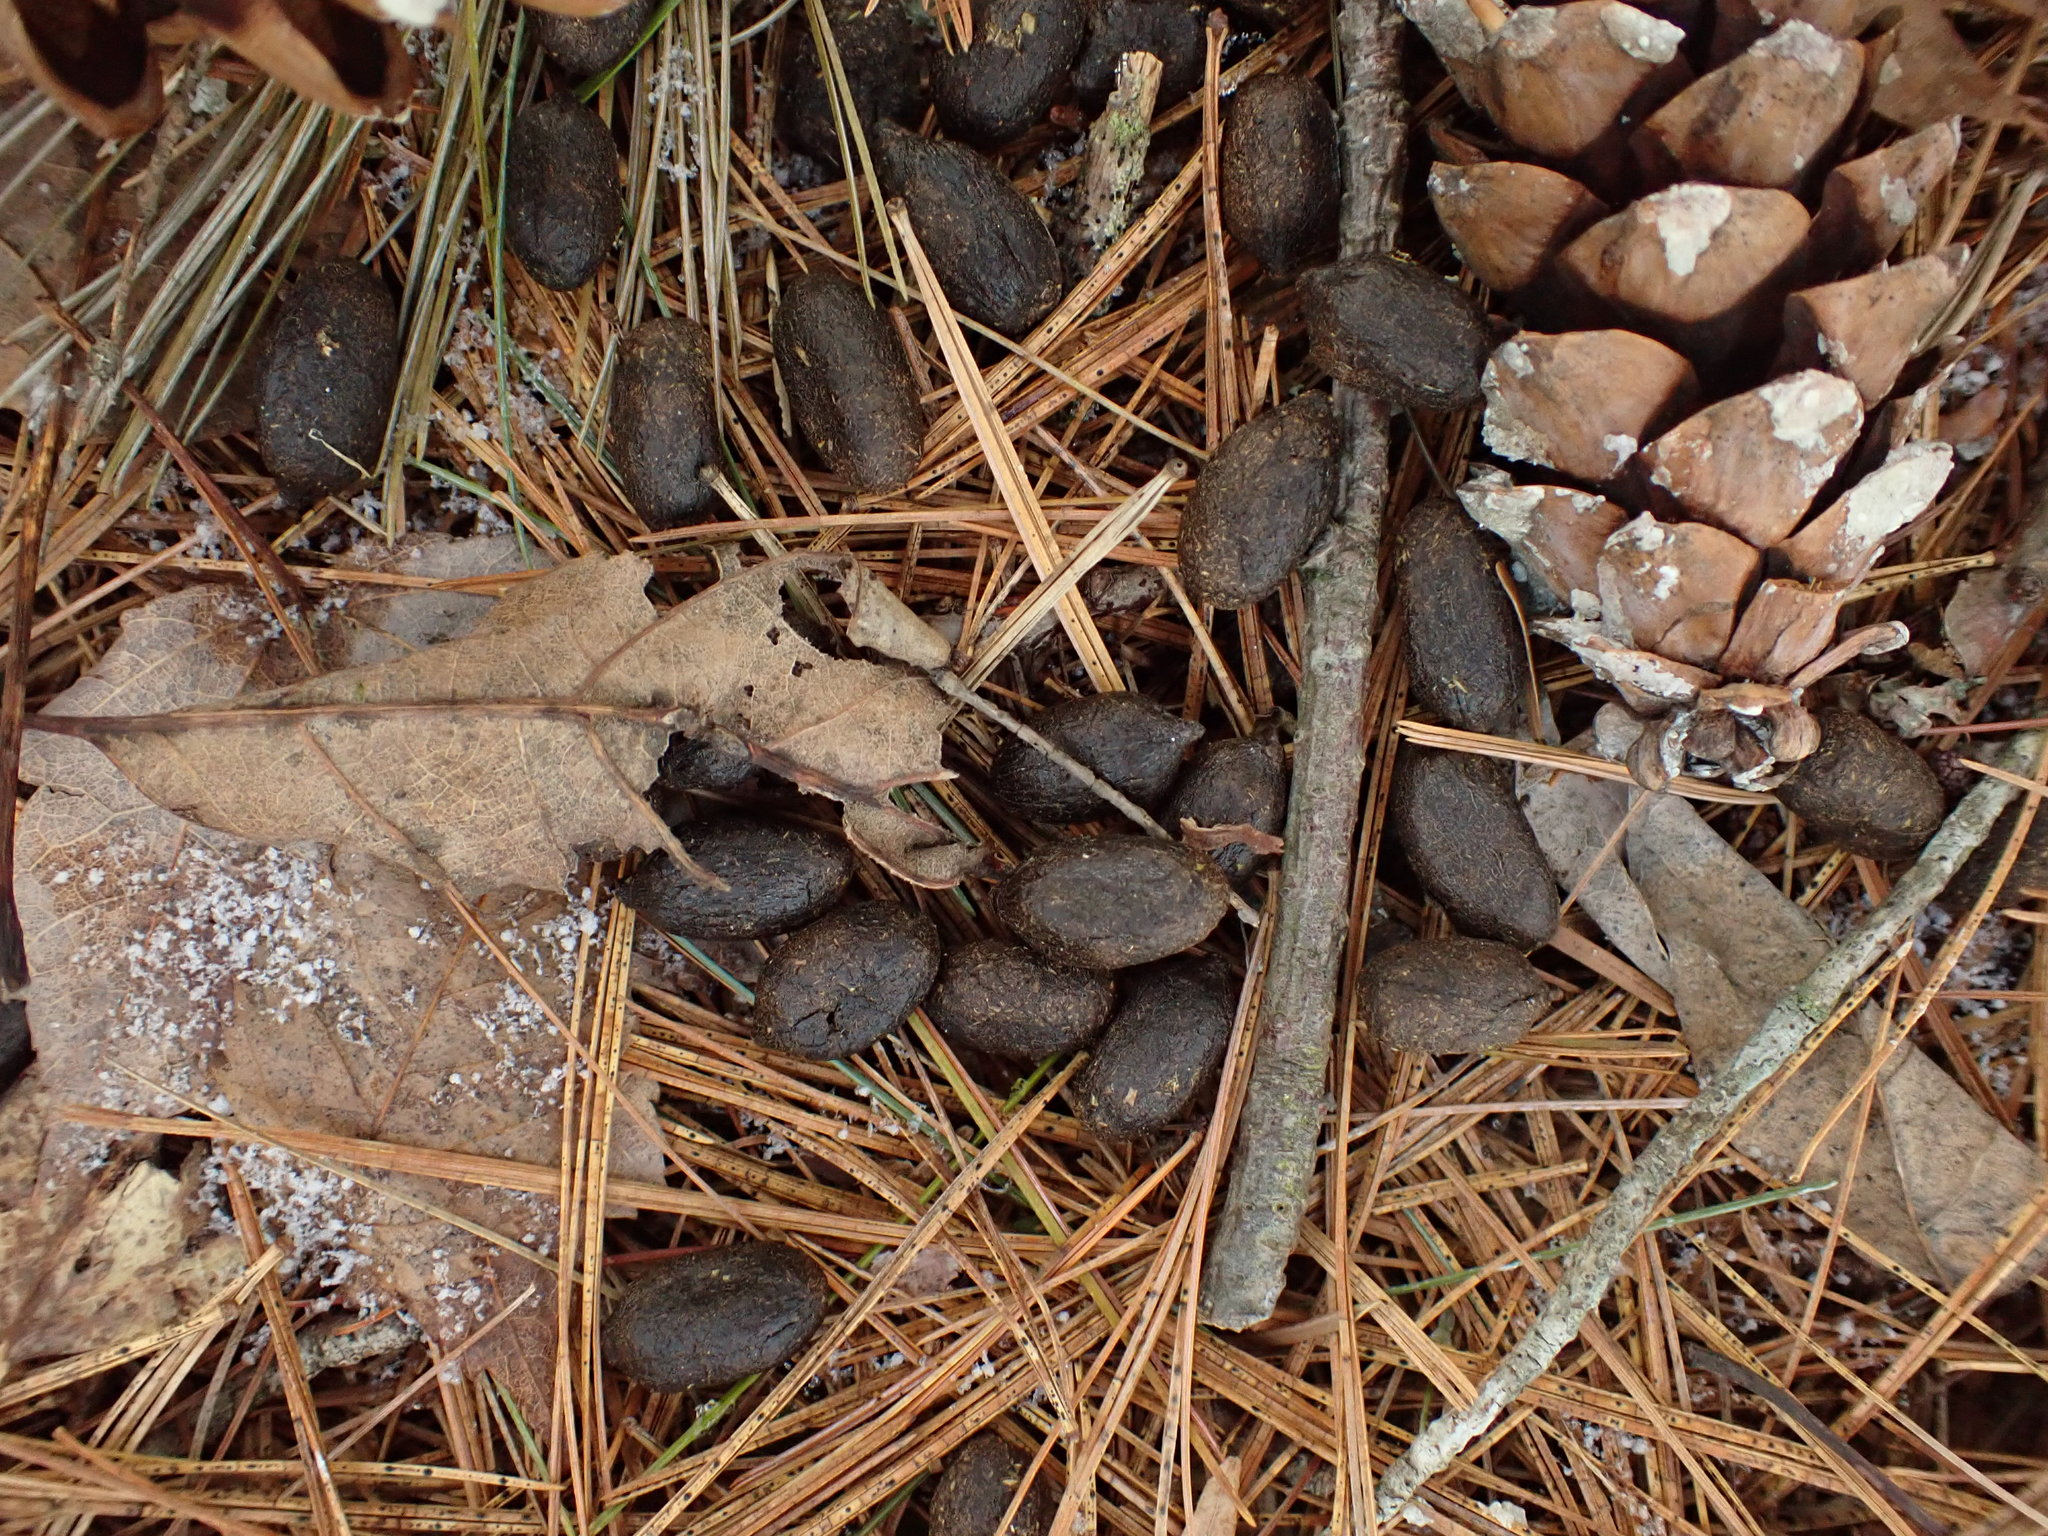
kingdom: Animalia
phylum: Chordata
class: Mammalia
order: Artiodactyla
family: Cervidae
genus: Odocoileus
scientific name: Odocoileus virginianus
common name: White-tailed deer
